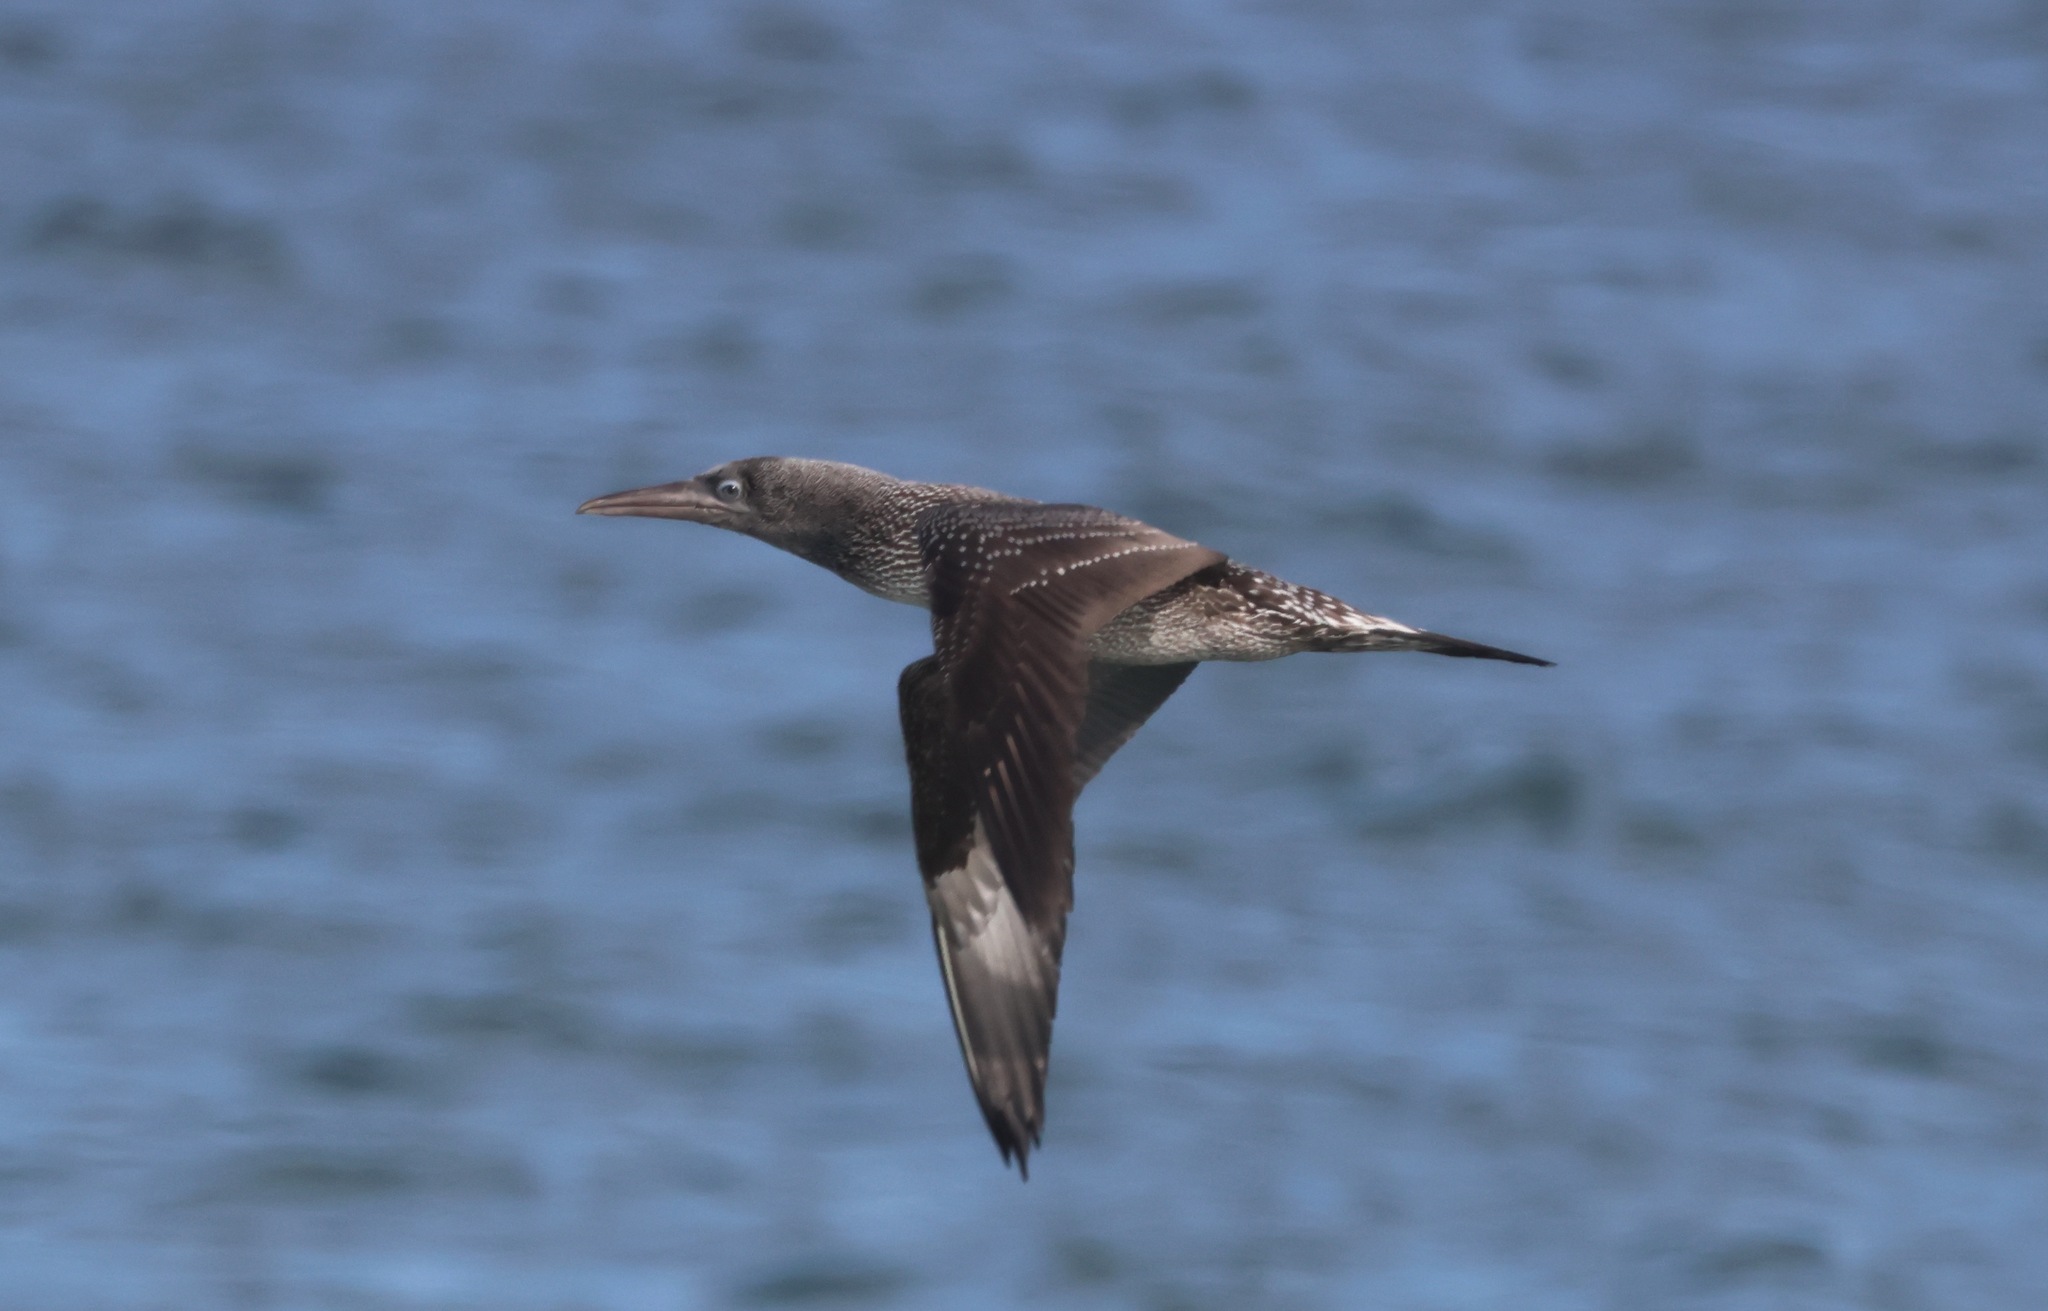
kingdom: Animalia
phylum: Chordata
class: Aves
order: Suliformes
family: Sulidae
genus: Morus
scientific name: Morus bassanus
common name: Northern gannet
